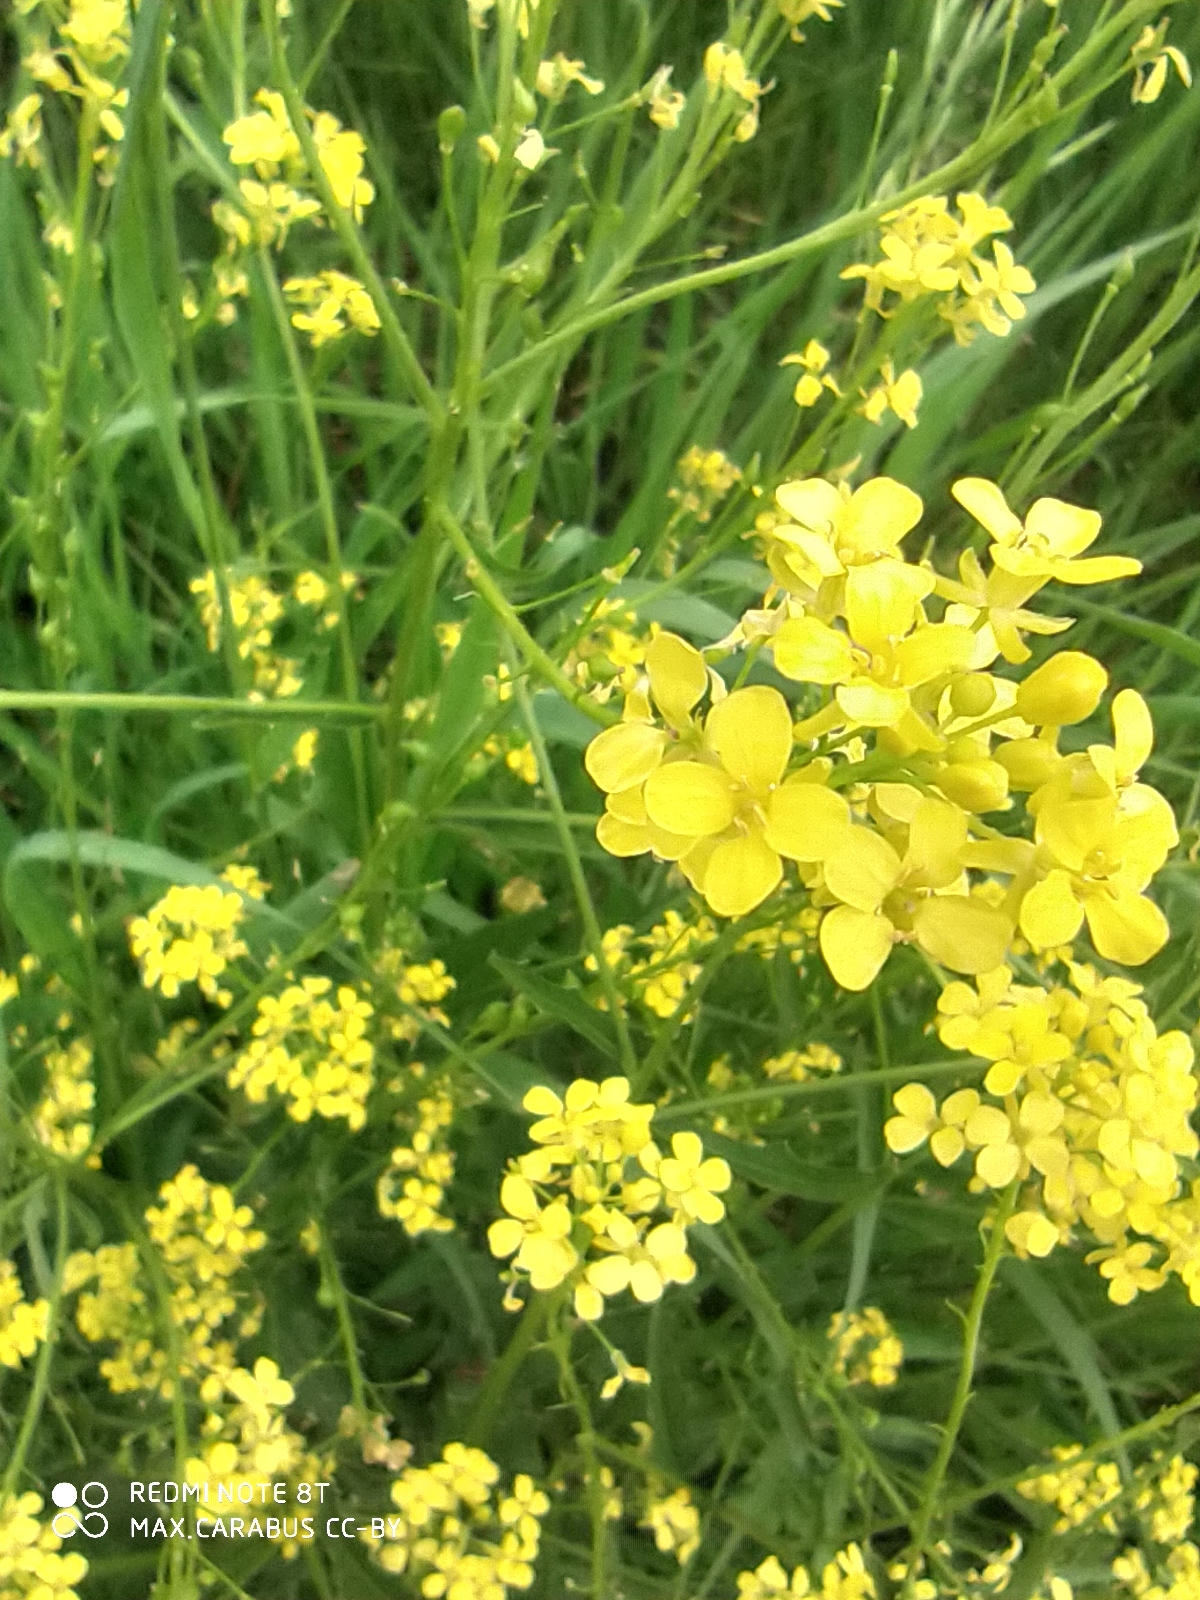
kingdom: Plantae
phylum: Tracheophyta
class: Magnoliopsida
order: Brassicales
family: Brassicaceae
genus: Bunias
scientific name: Bunias orientalis
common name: Warty-cabbage
